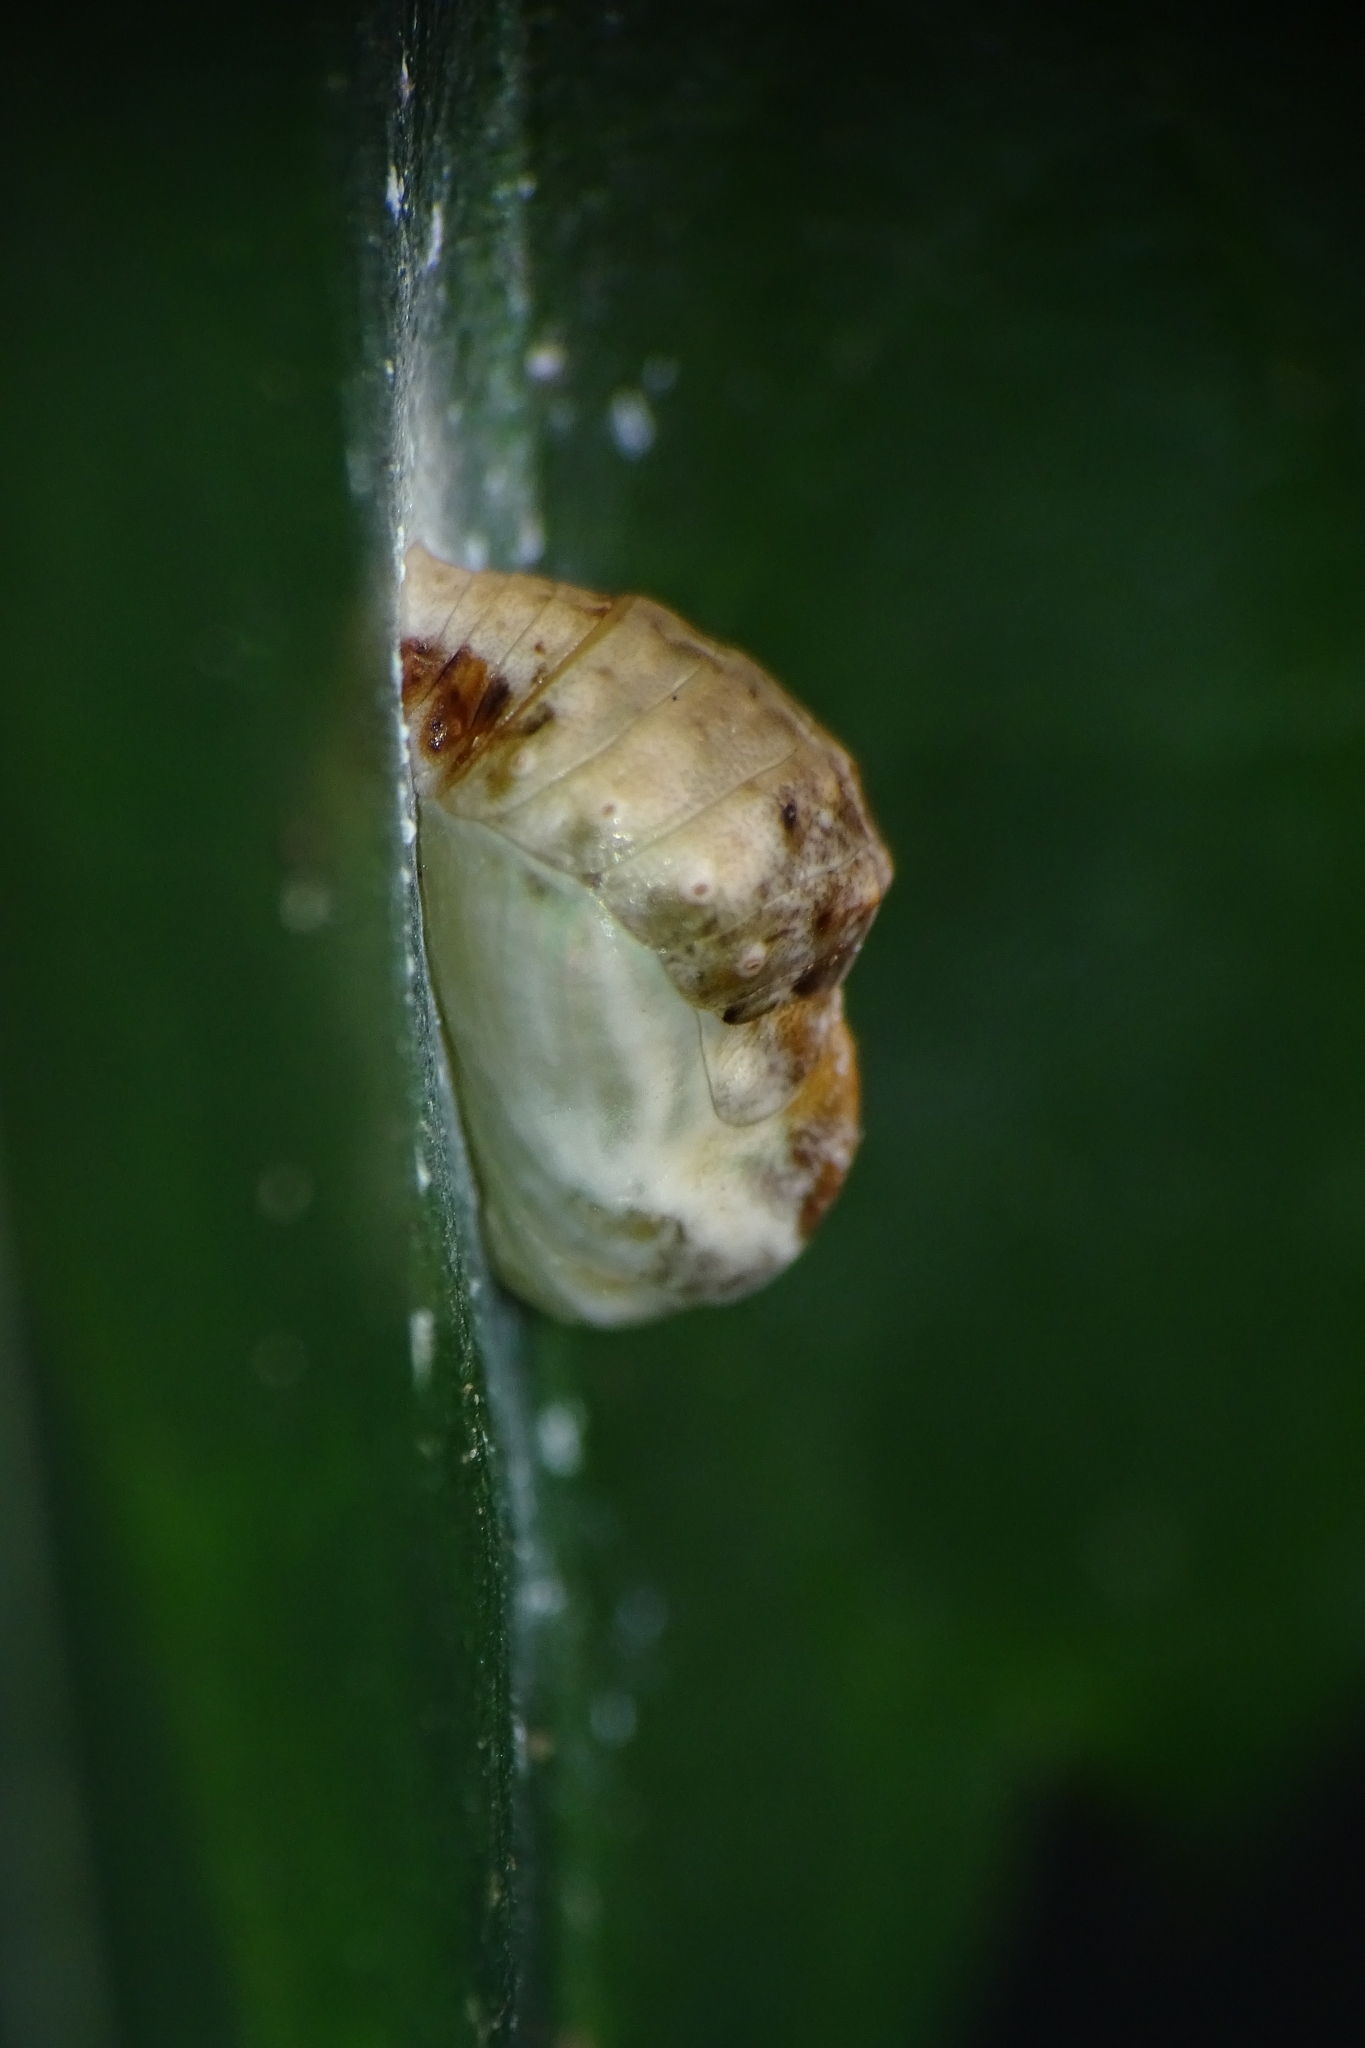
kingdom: Animalia
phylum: Arthropoda
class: Insecta
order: Lepidoptera
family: Lycaenidae
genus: Spalgis
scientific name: Spalgis epius
